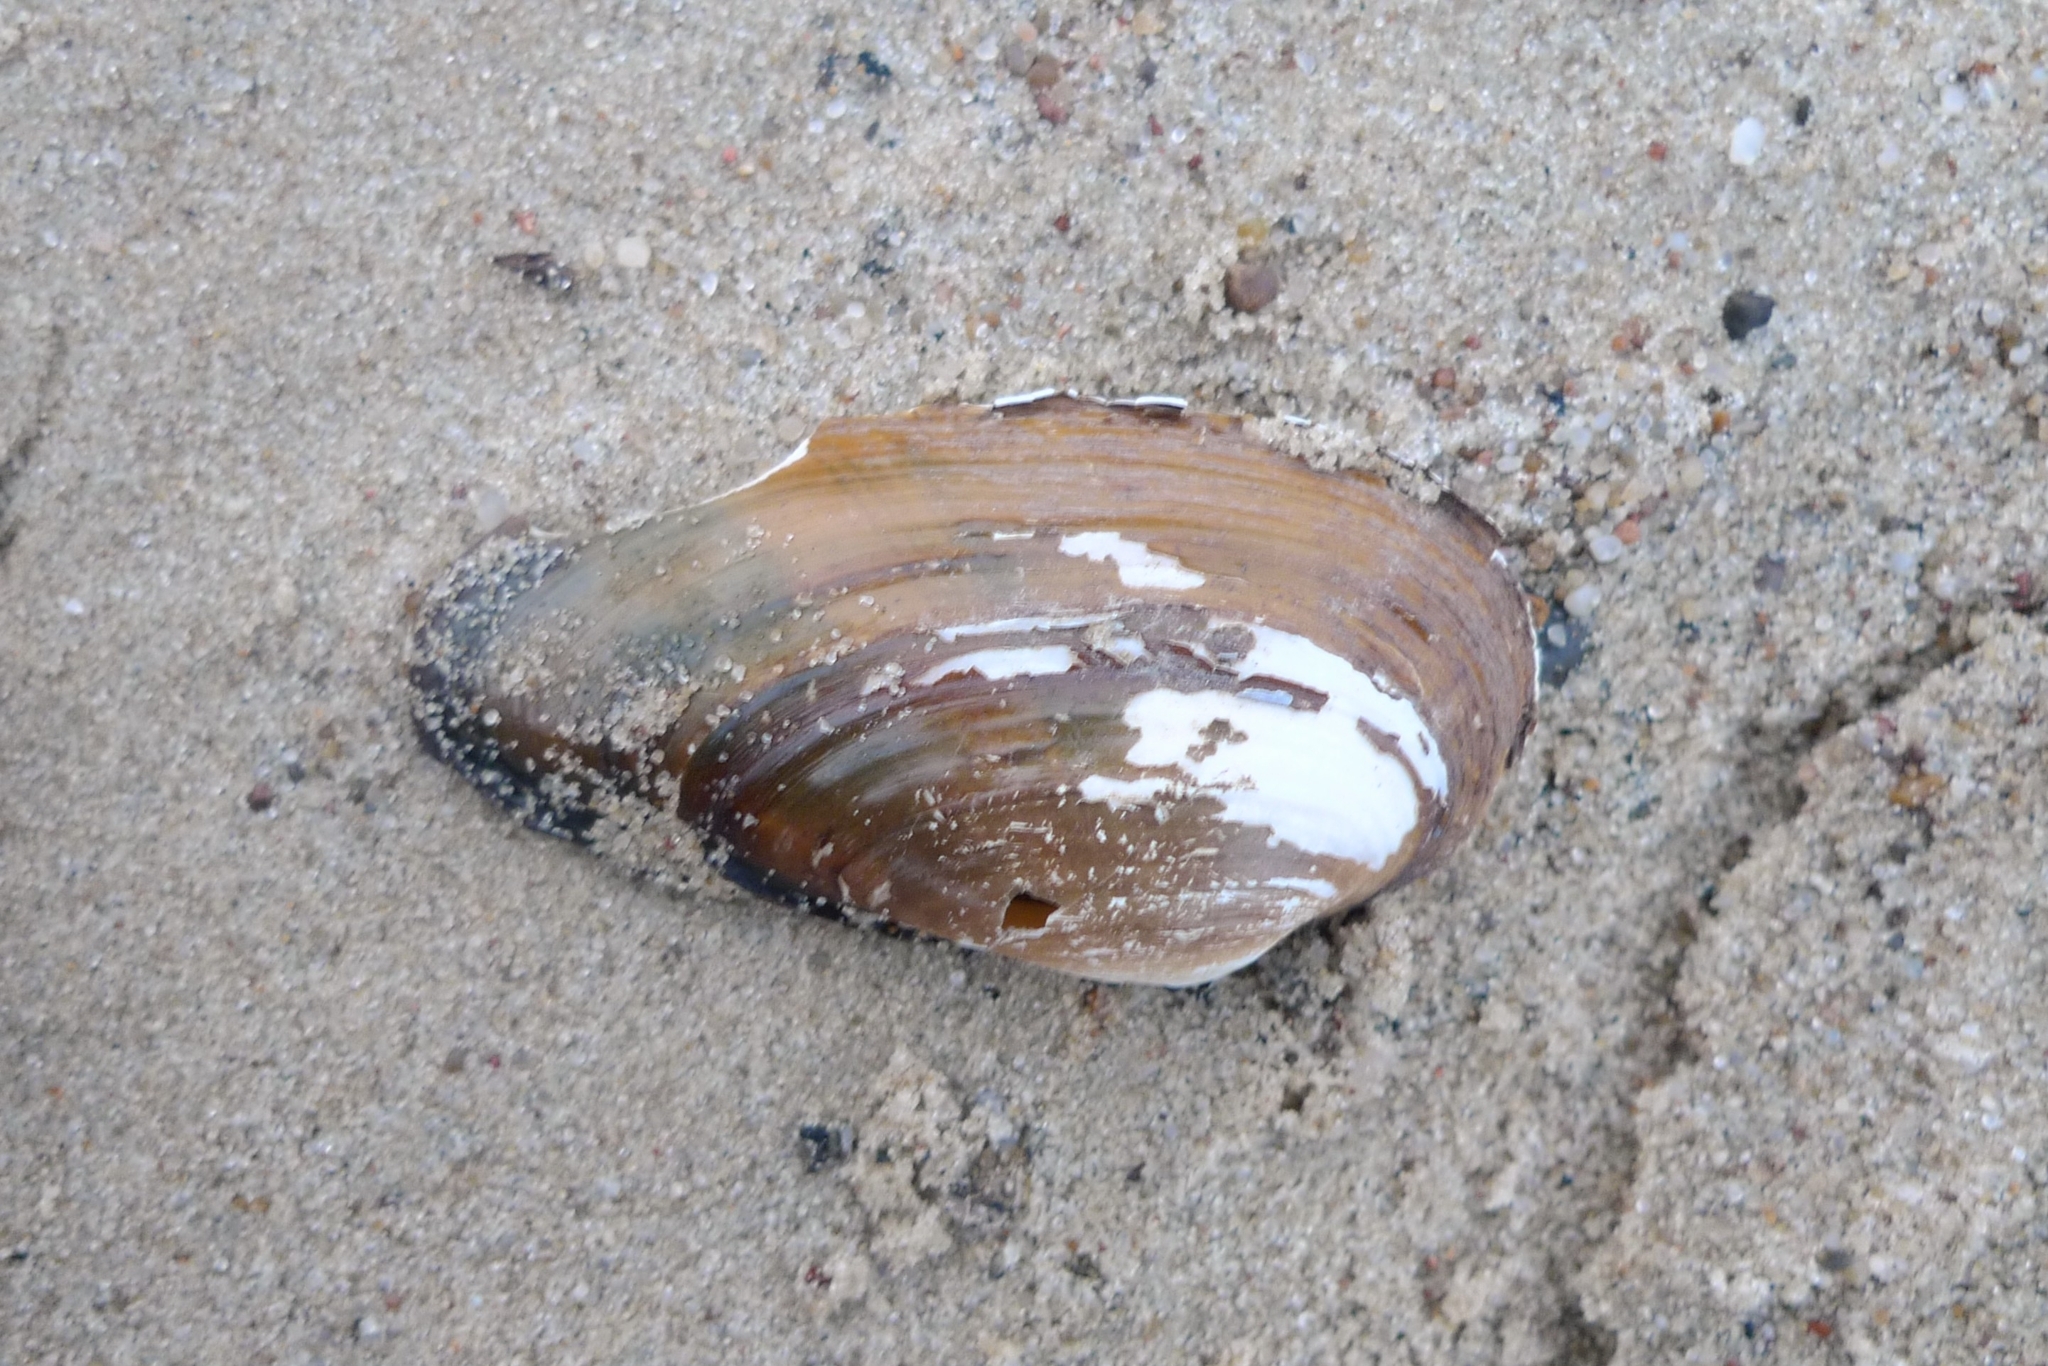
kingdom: Animalia
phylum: Mollusca
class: Bivalvia
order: Unionida
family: Unionidae
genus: Unio
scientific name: Unio tumidus
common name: Swollen river mussel
